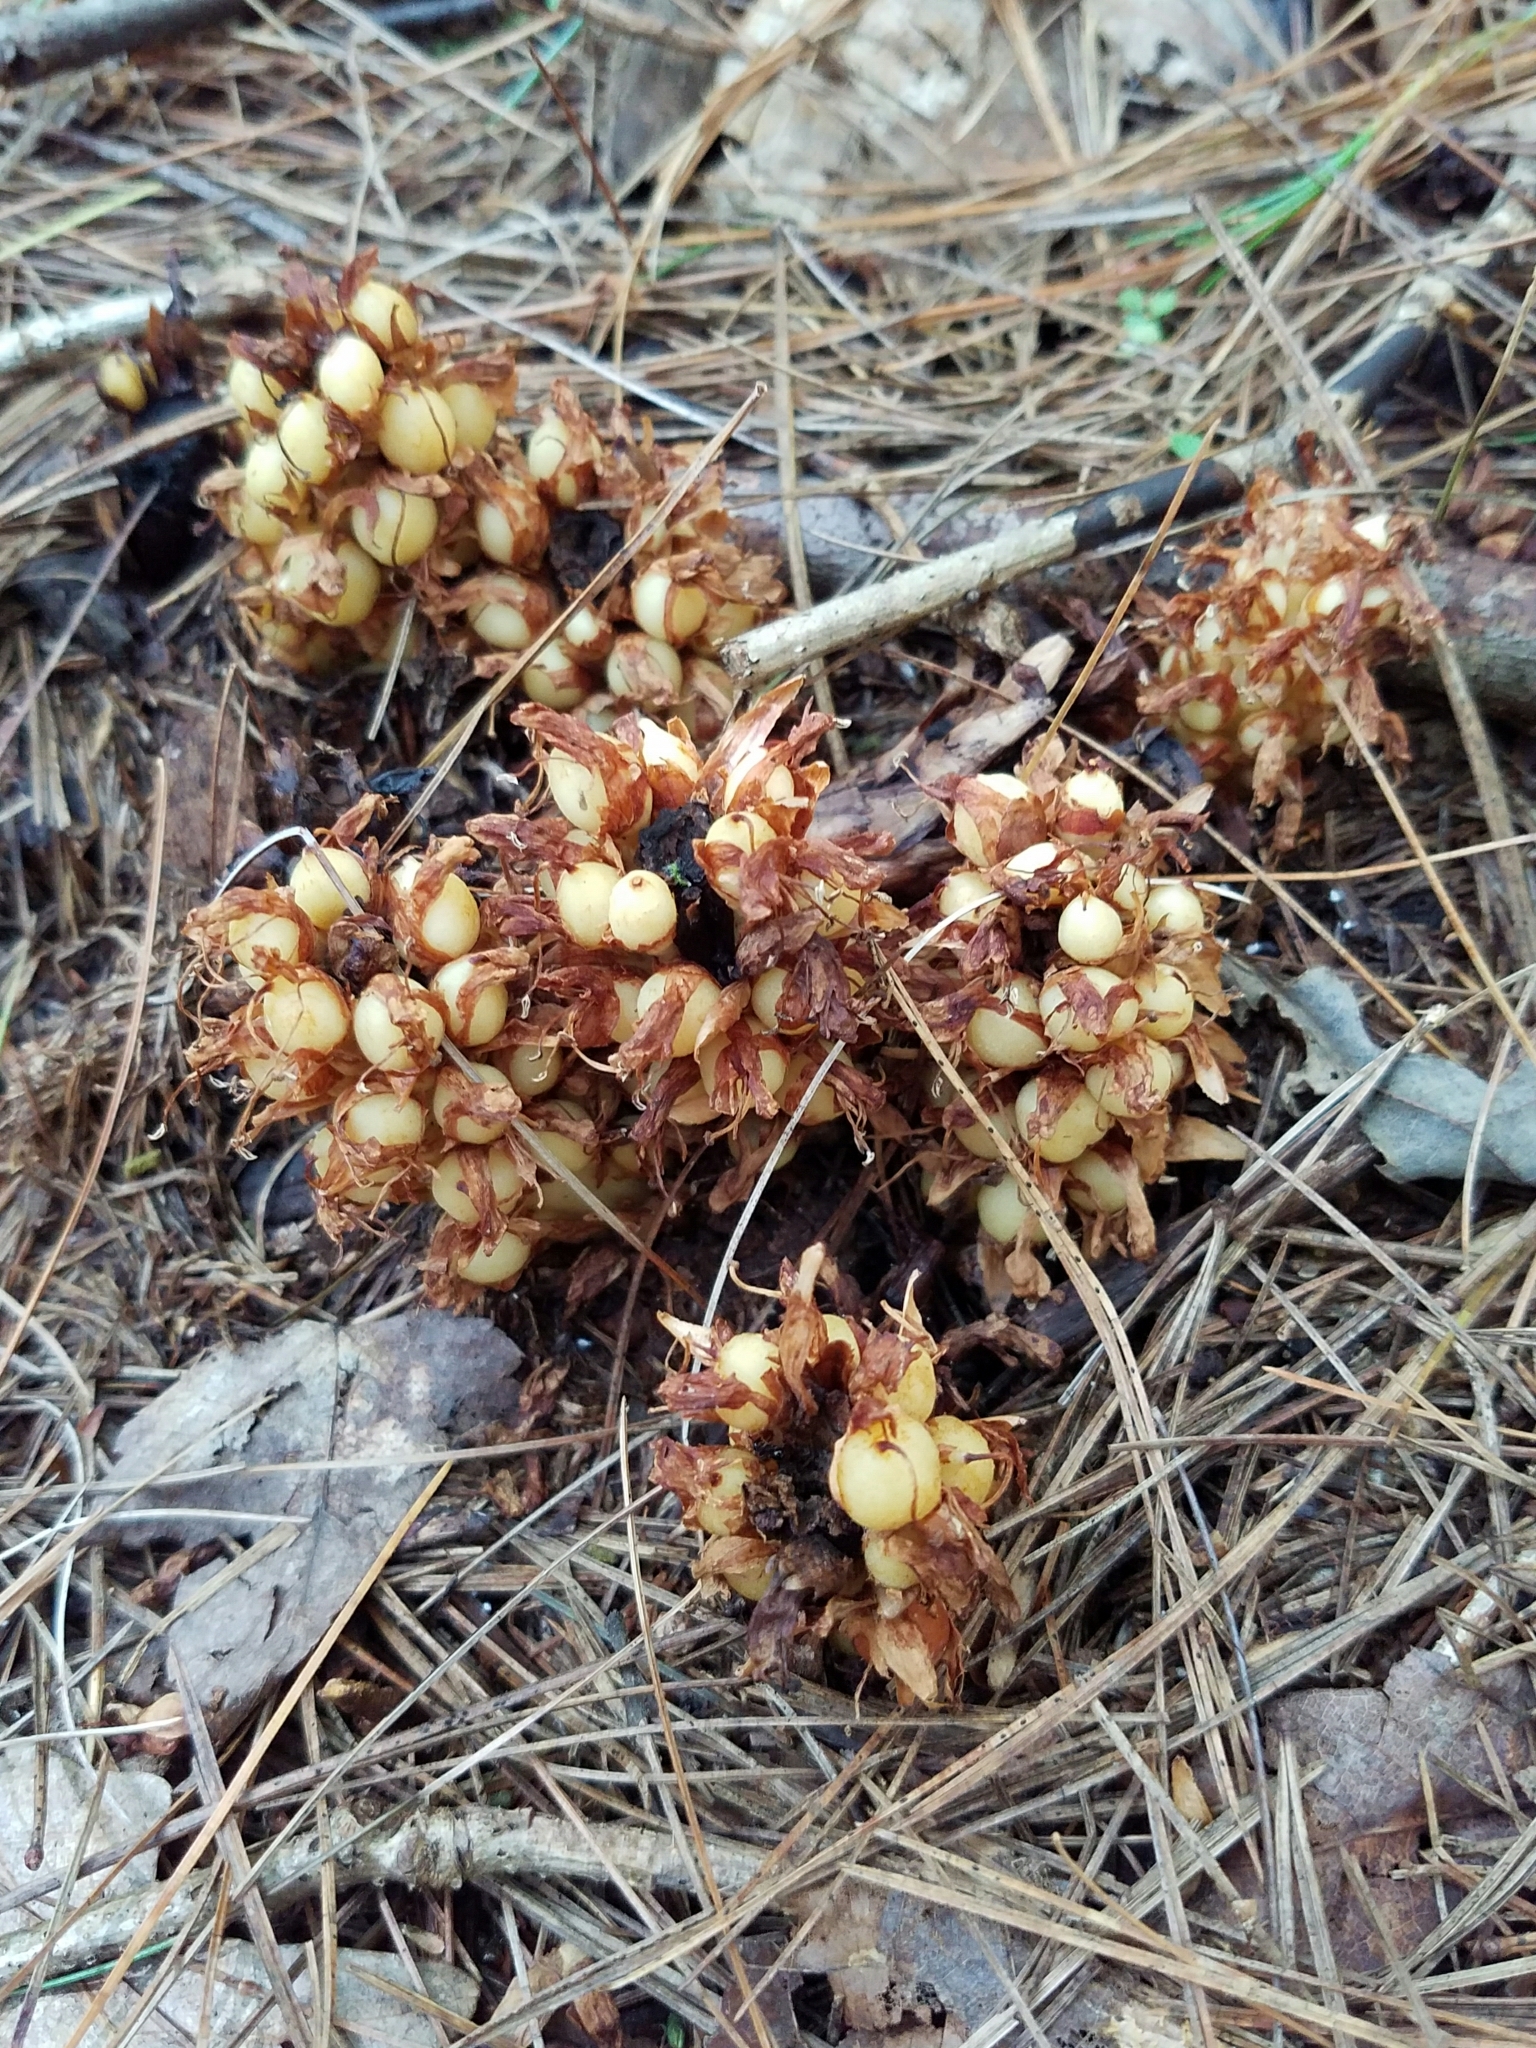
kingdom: Plantae
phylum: Tracheophyta
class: Magnoliopsida
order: Lamiales
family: Orobanchaceae
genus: Conopholis
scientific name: Conopholis americana
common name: American cancer-root
